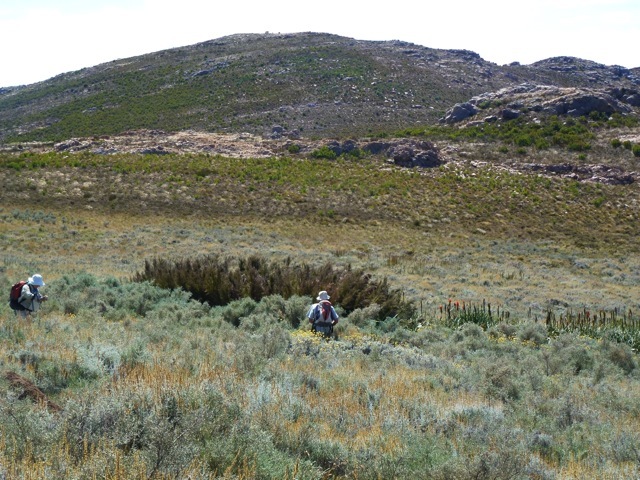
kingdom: Plantae
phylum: Tracheophyta
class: Magnoliopsida
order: Gunnerales
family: Gunneraceae
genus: Gunnera
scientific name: Gunnera perpensa
